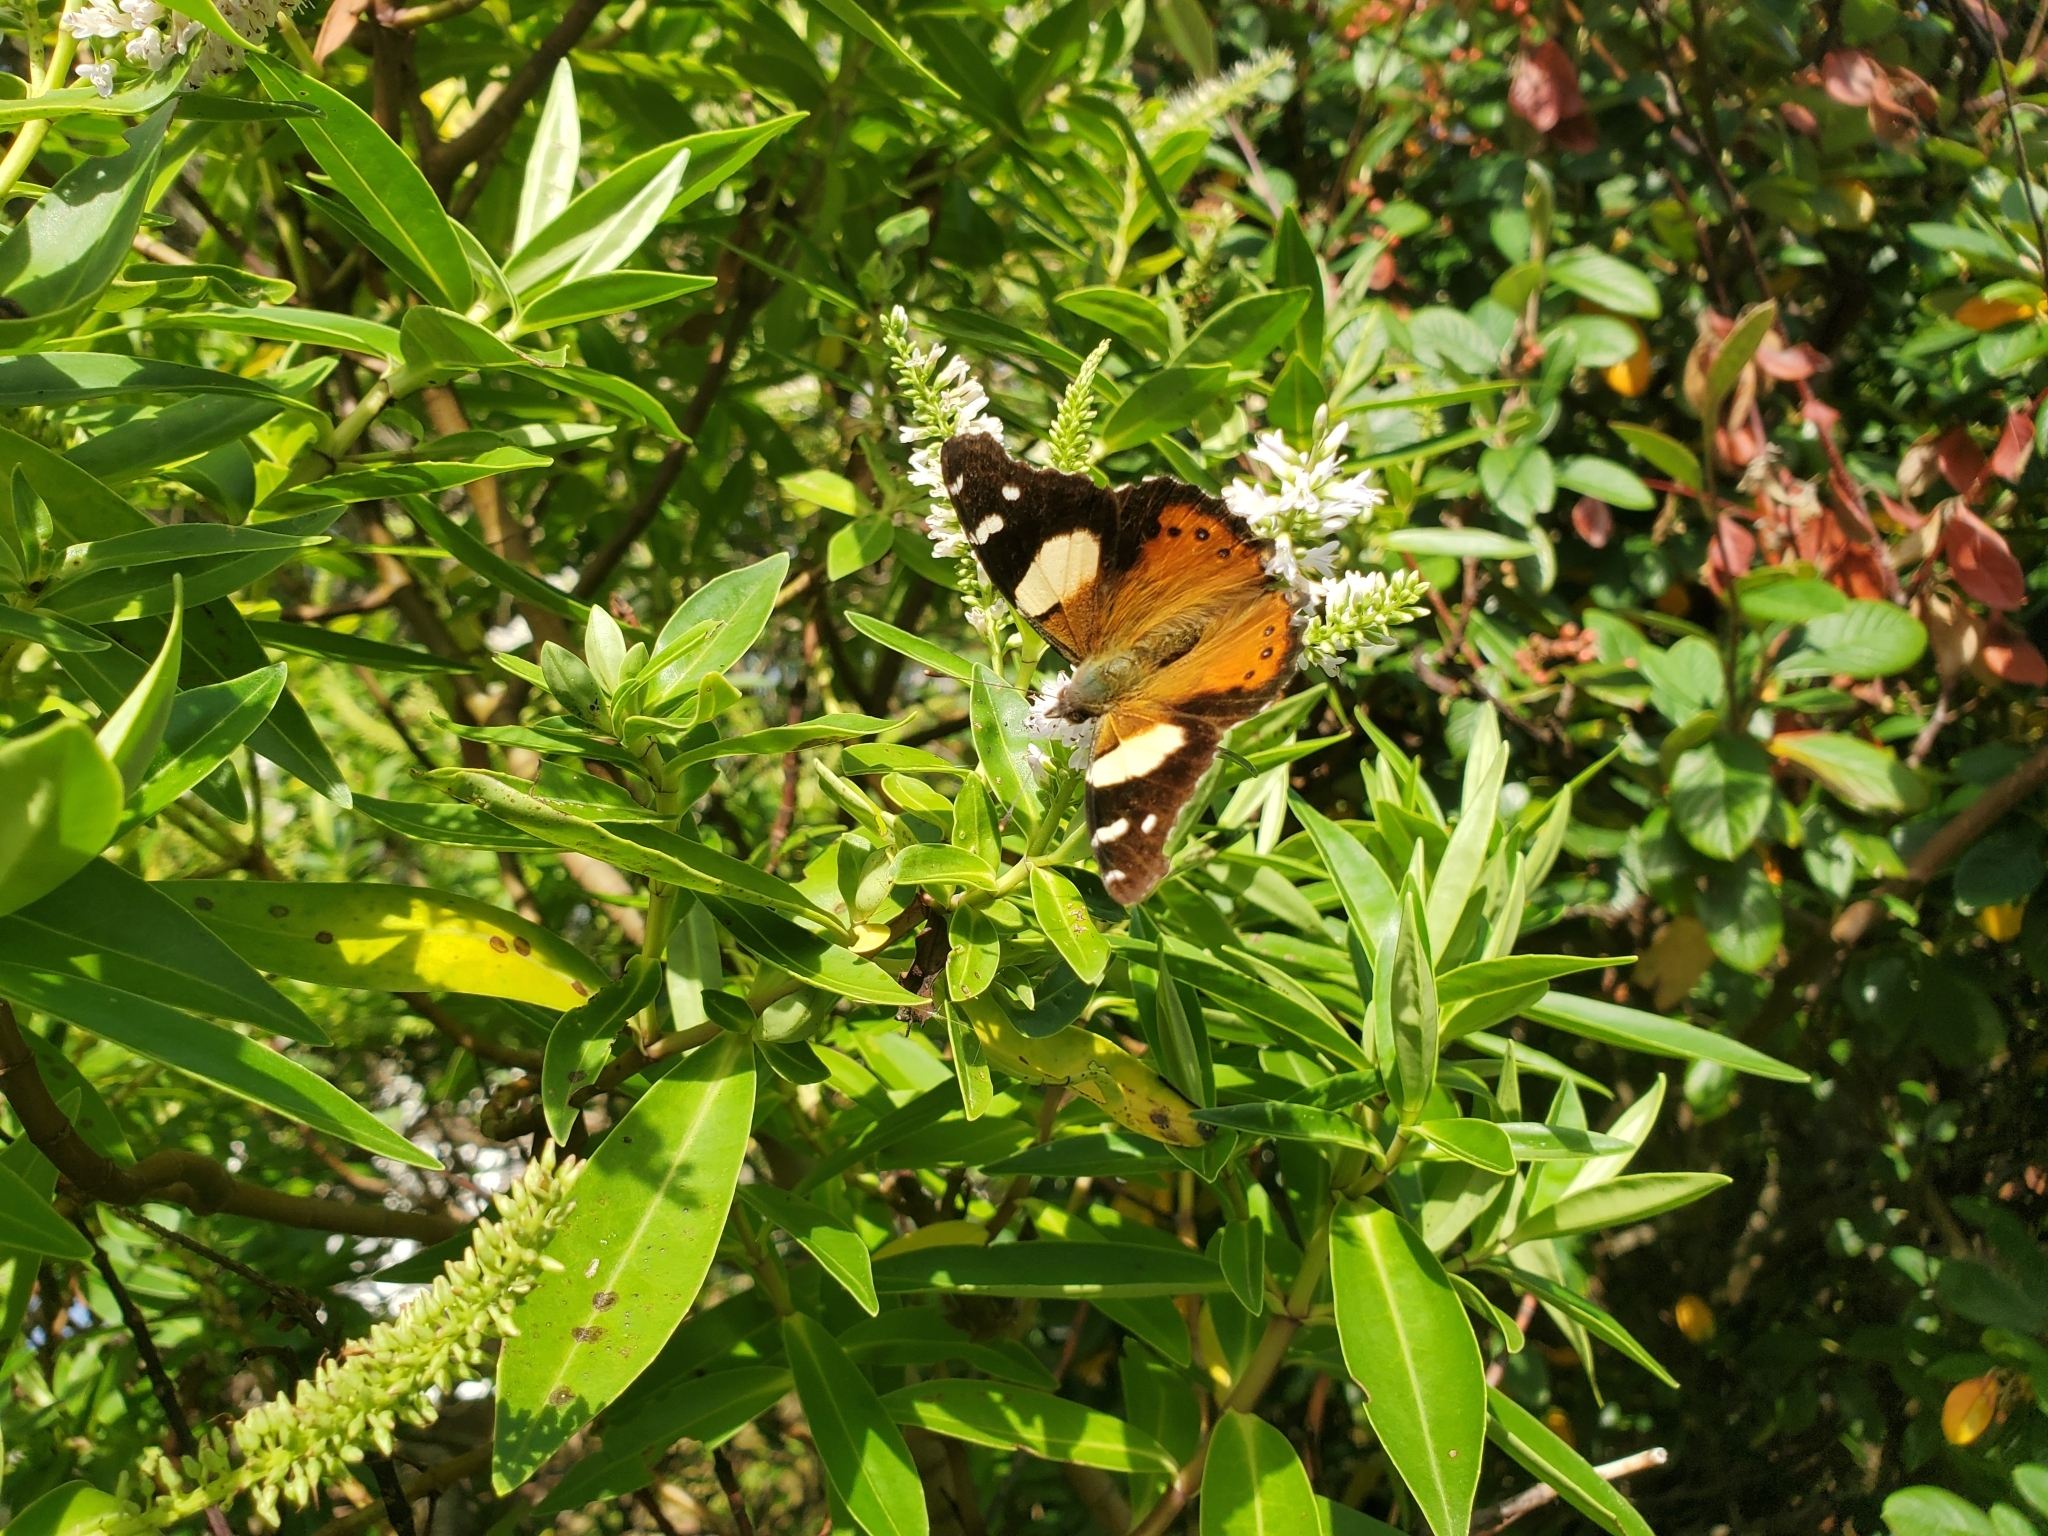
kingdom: Animalia
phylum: Arthropoda
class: Insecta
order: Lepidoptera
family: Nymphalidae
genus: Vanessa
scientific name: Vanessa itea
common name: Yellow admiral
